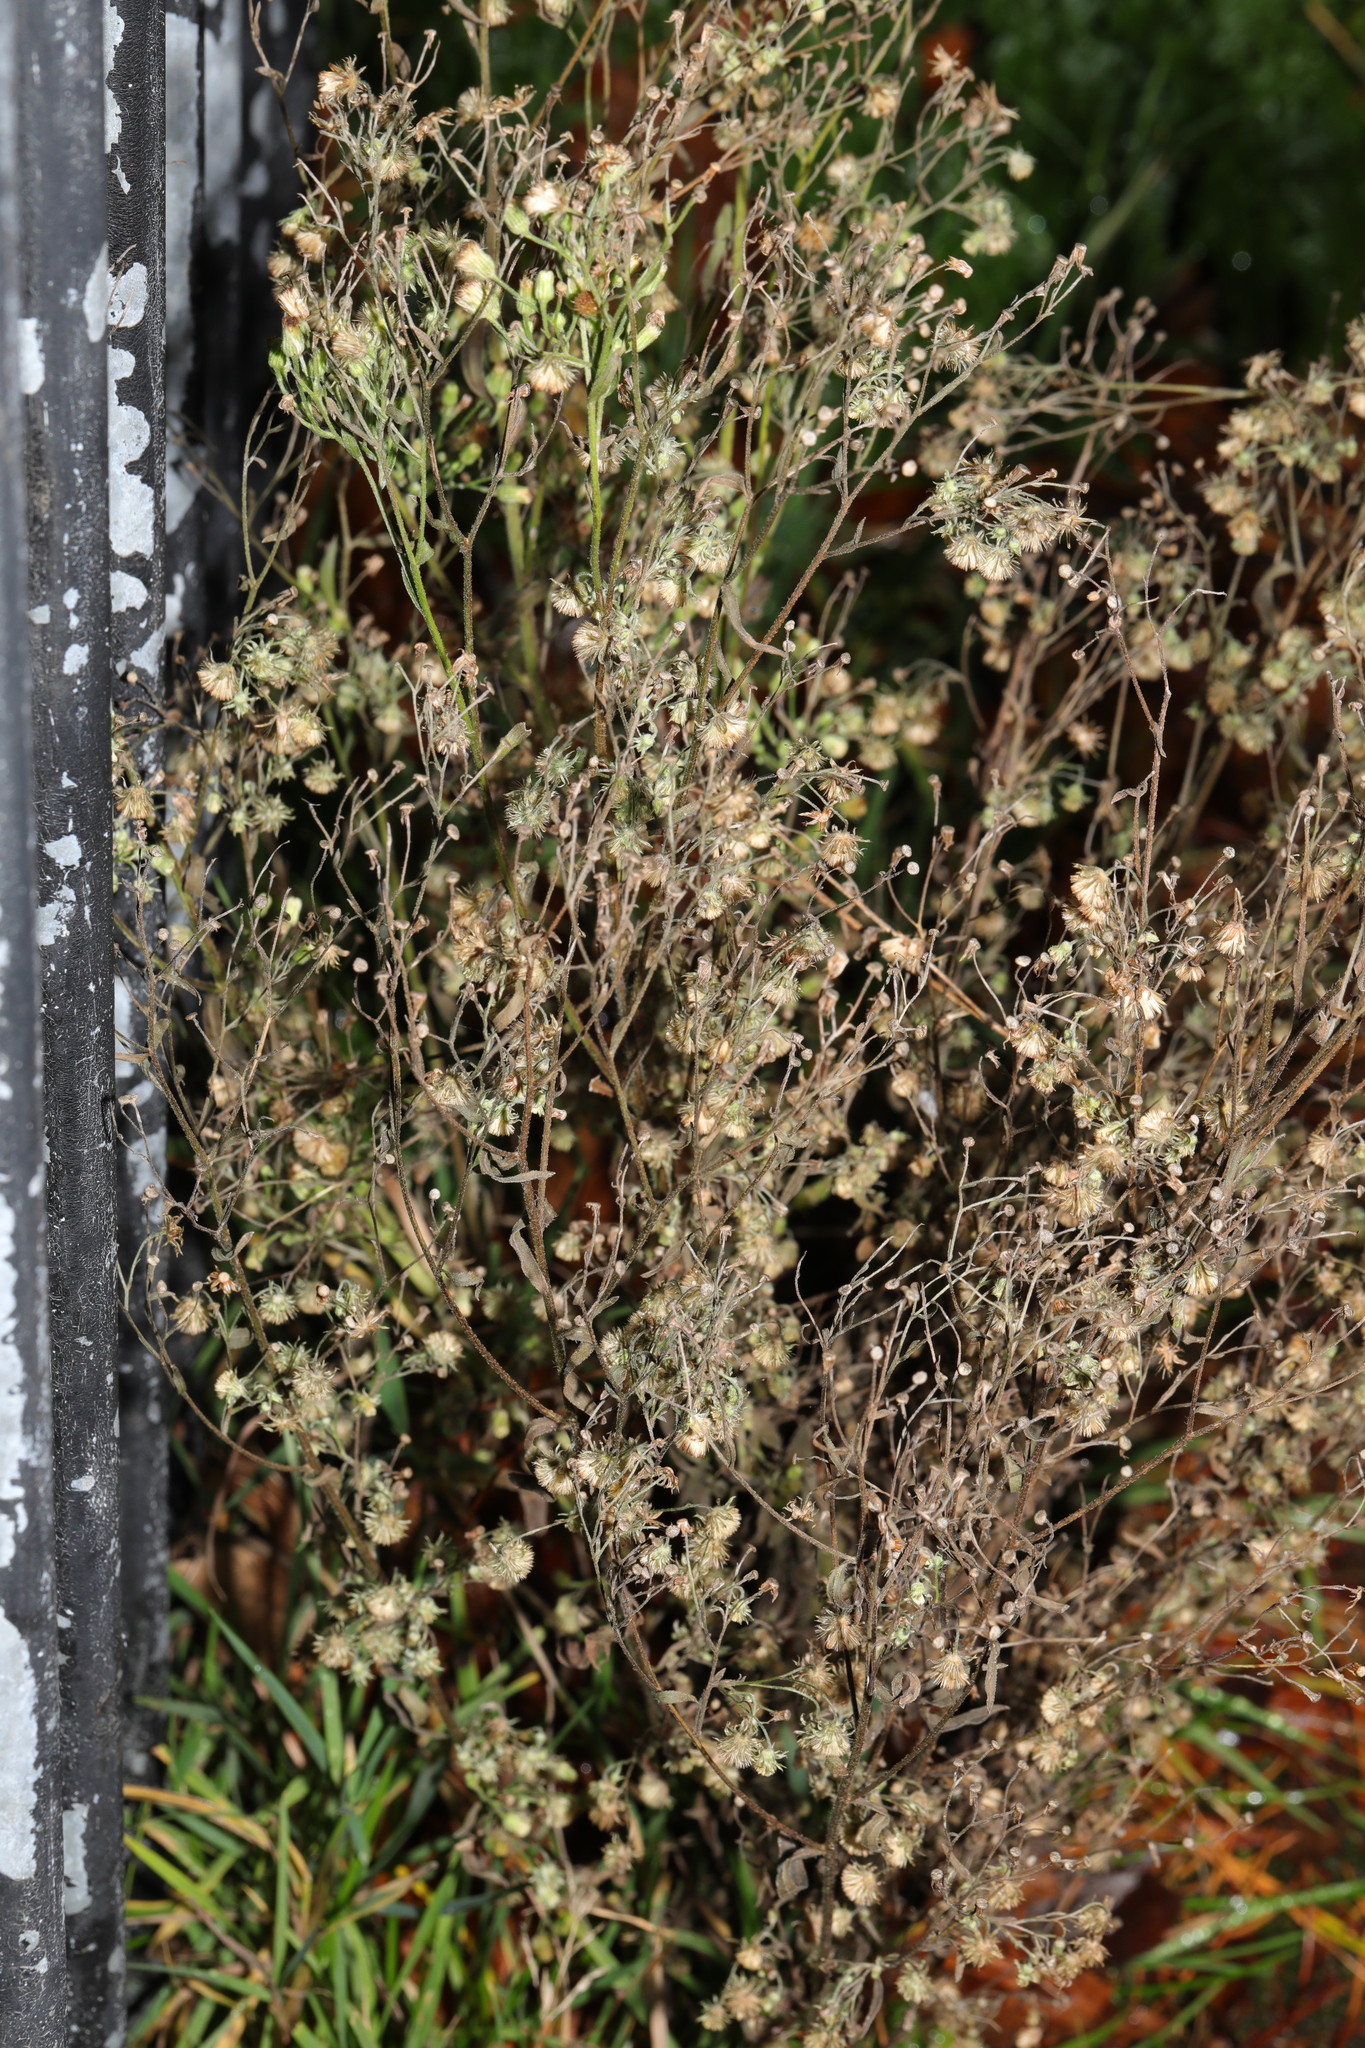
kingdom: Plantae
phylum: Tracheophyta
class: Magnoliopsida
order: Asterales
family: Asteraceae
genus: Erigeron
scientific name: Erigeron sumatrensis
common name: Daisy
